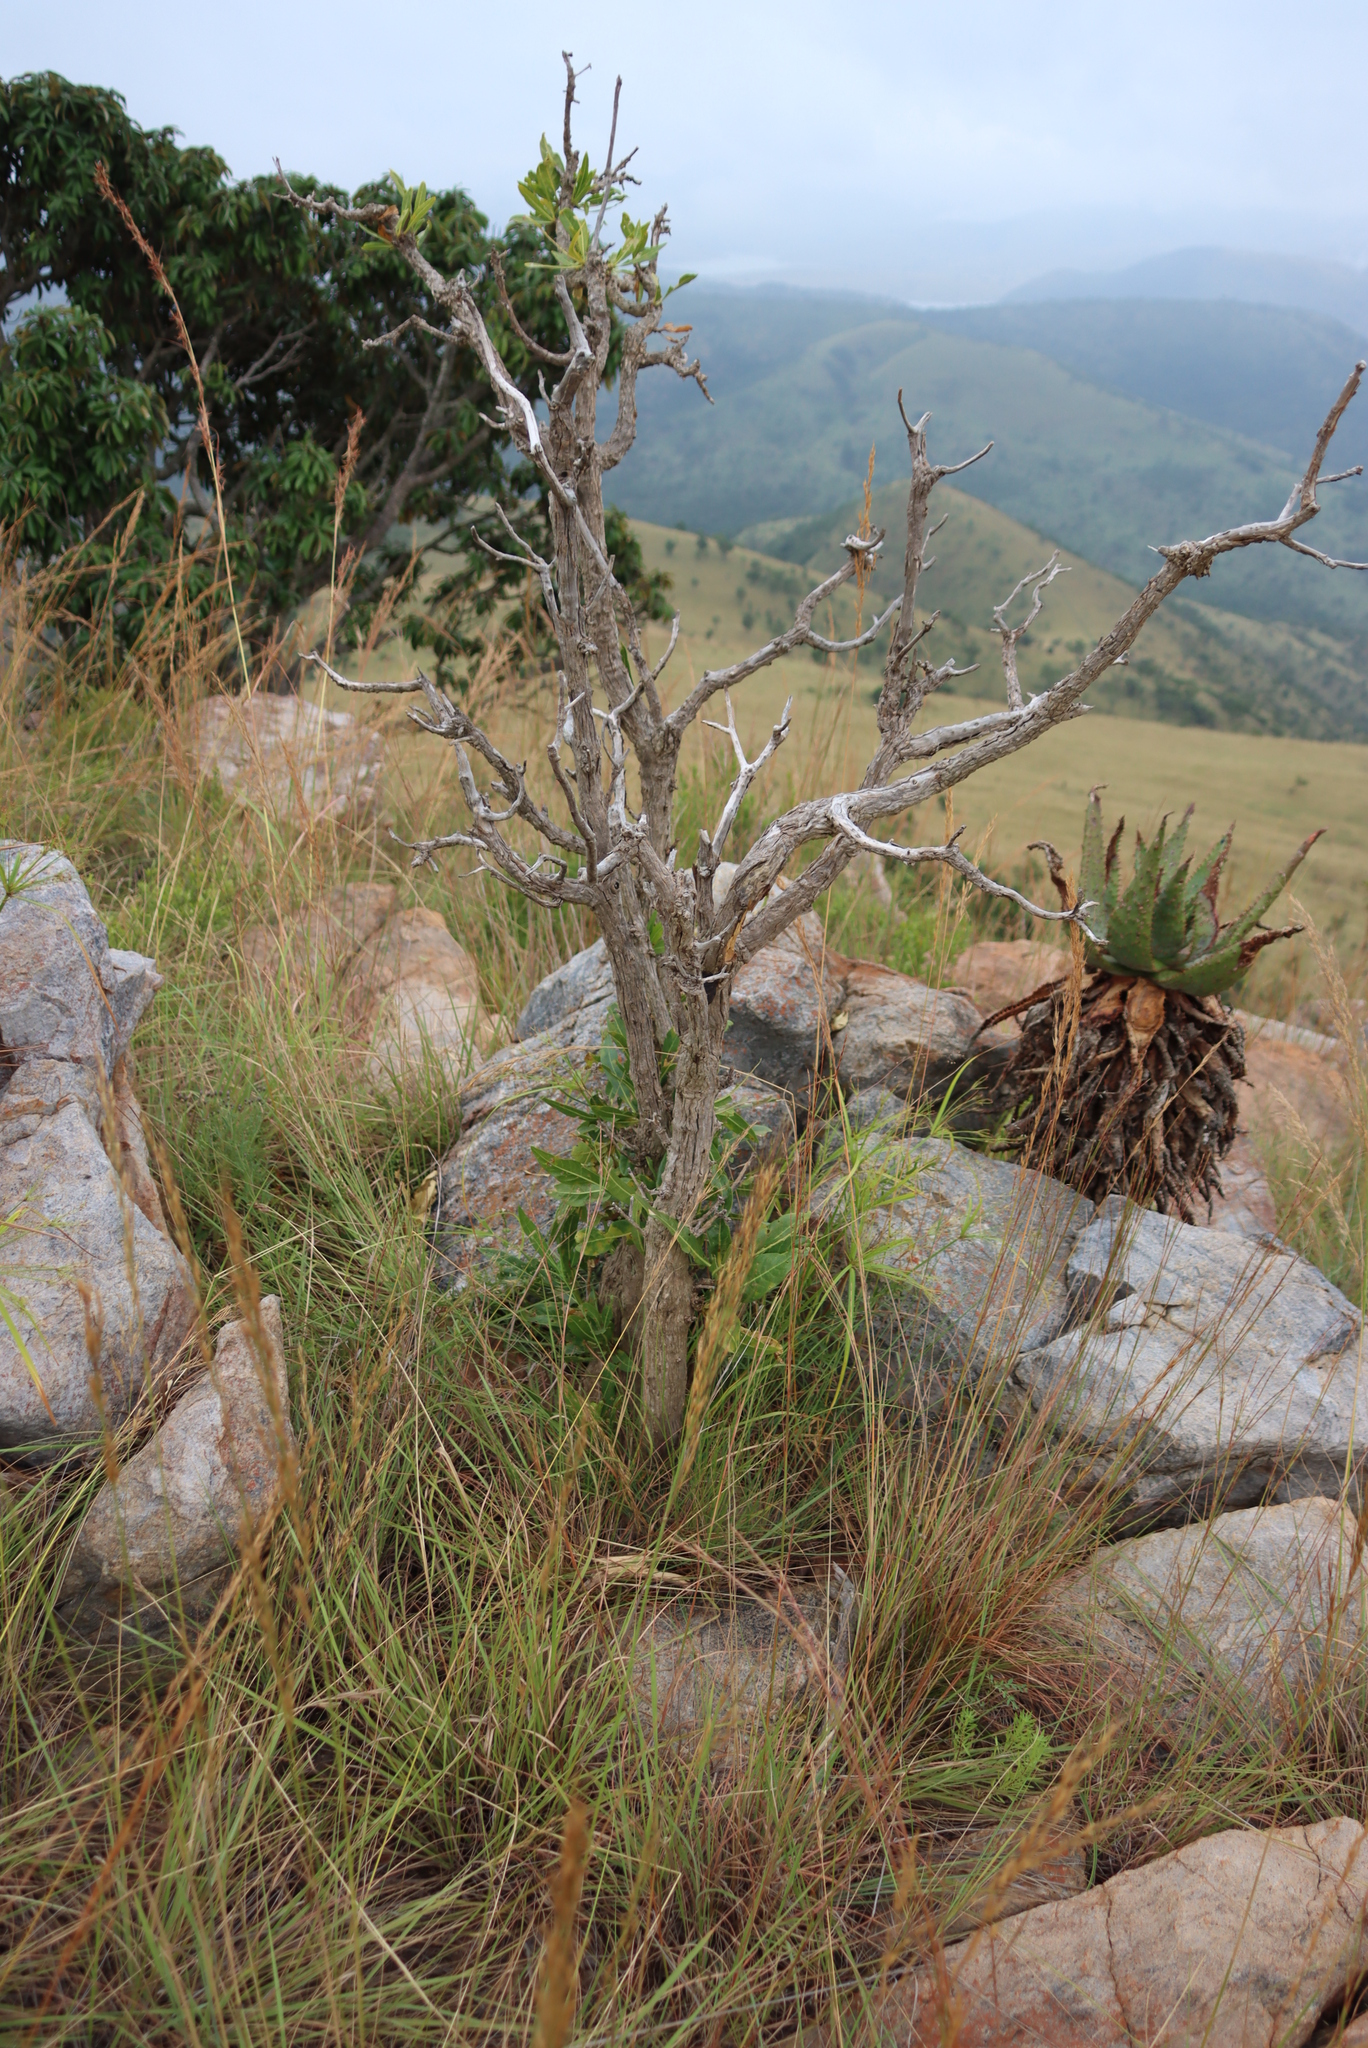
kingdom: Plantae
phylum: Tracheophyta
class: Magnoliopsida
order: Gentianales
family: Rubiaceae
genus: Pavetta
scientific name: Pavetta edentula
